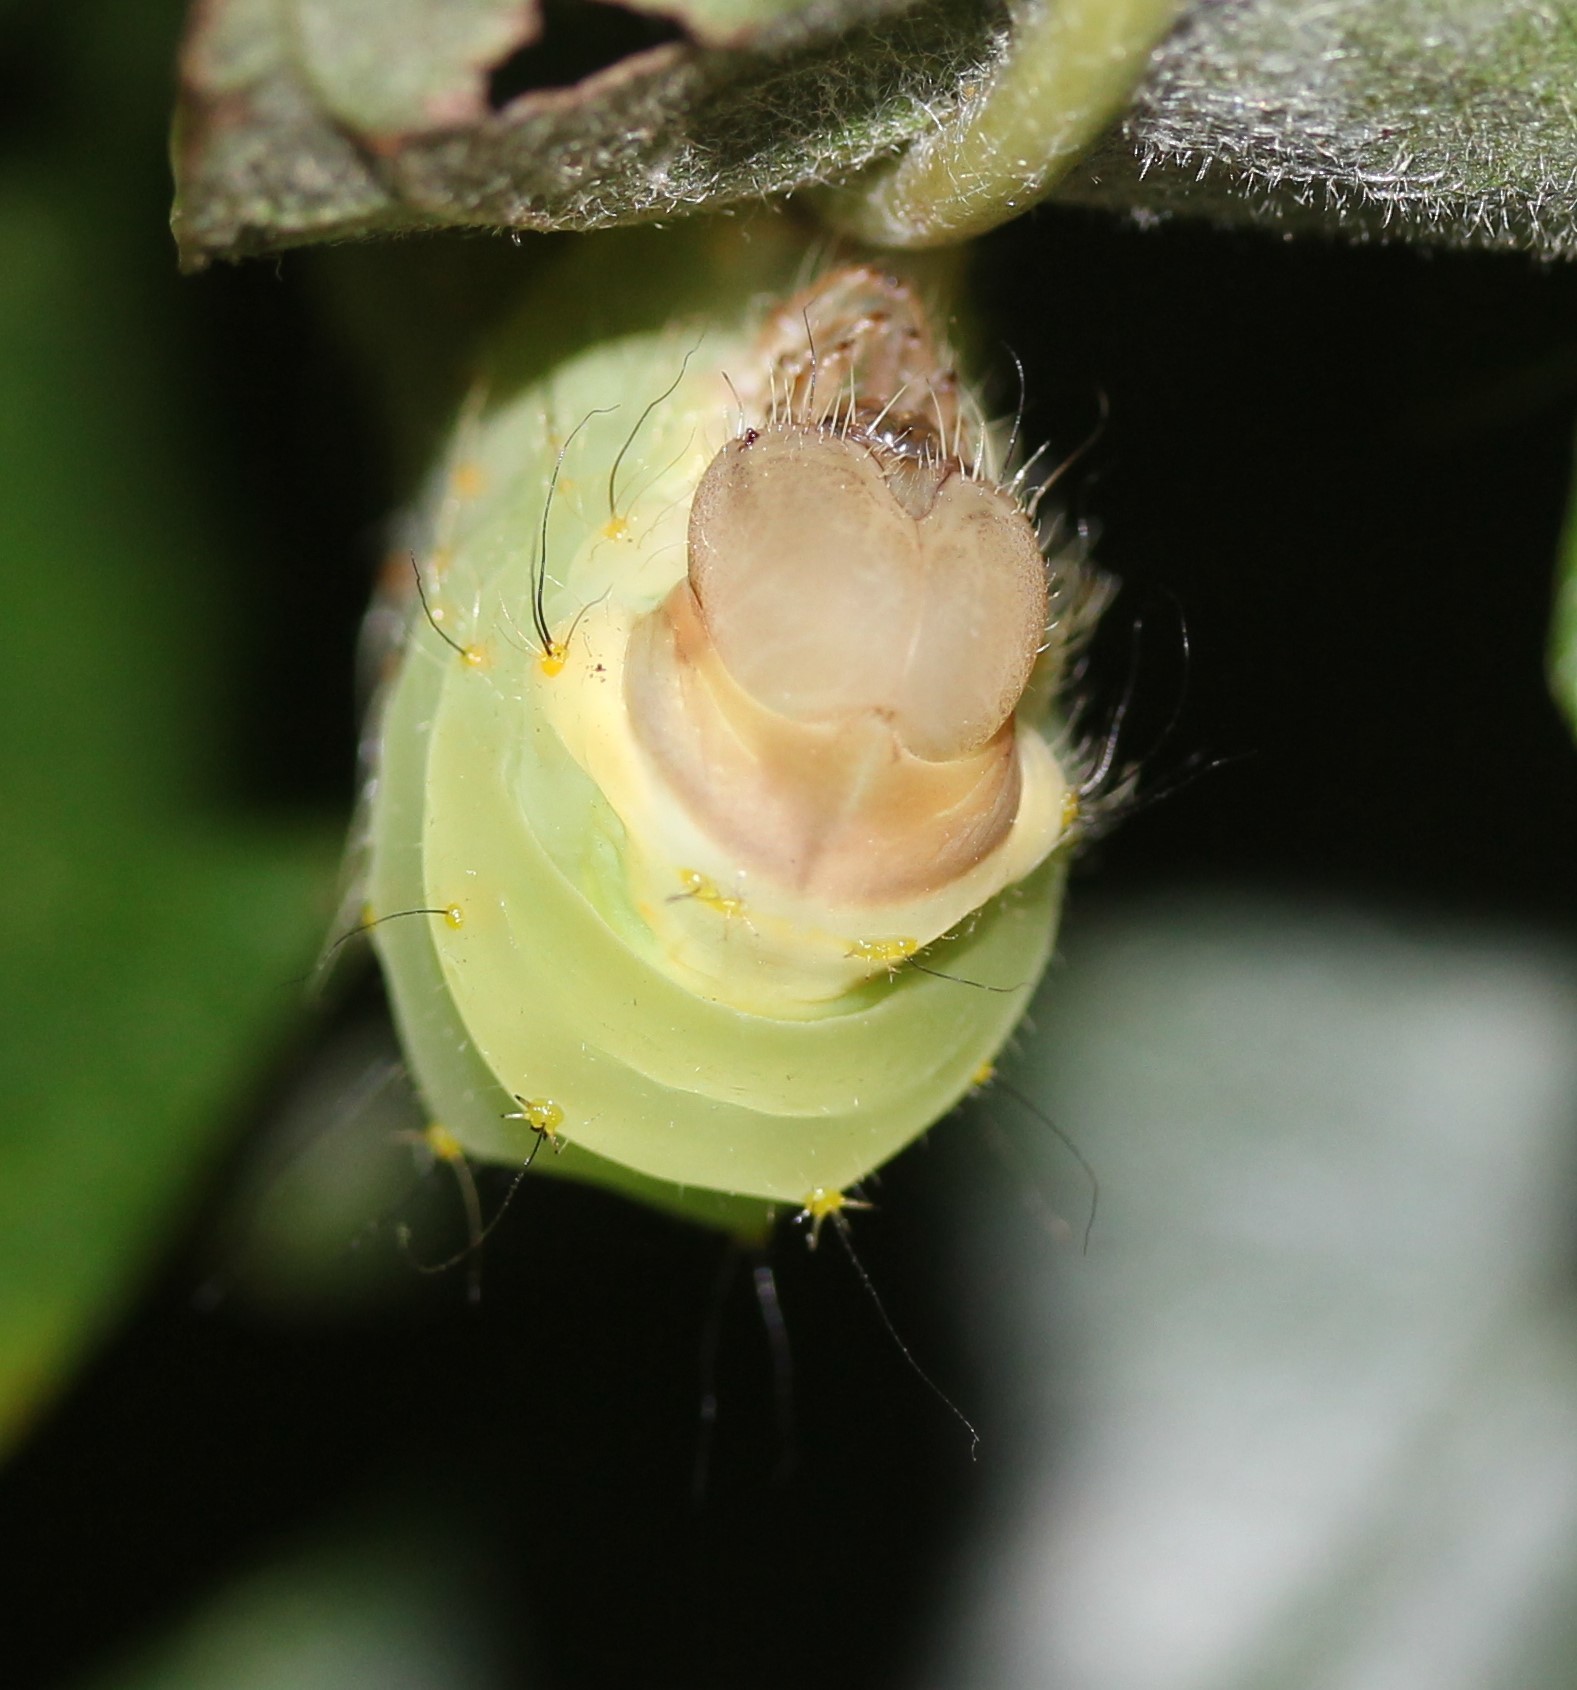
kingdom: Animalia
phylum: Arthropoda
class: Insecta
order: Lepidoptera
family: Saturniidae
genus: Antheraea
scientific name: Antheraea polyphemus
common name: Polyphemus moth
